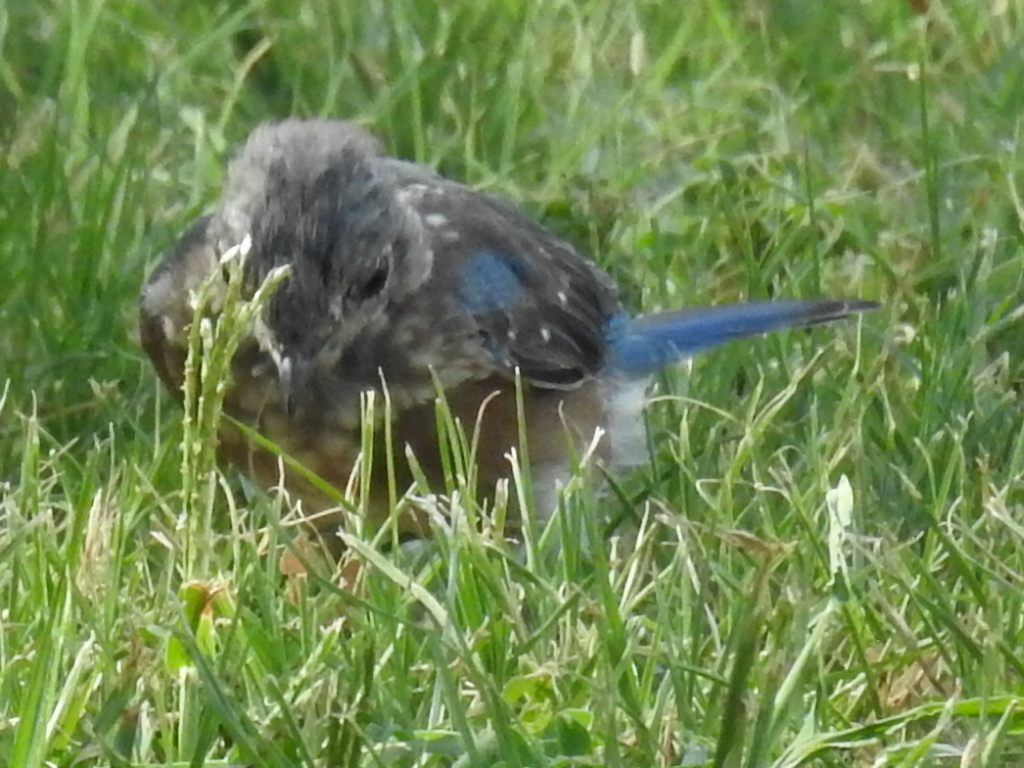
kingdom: Animalia
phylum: Chordata
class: Aves
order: Passeriformes
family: Turdidae
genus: Sialia
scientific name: Sialia sialis
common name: Eastern bluebird
